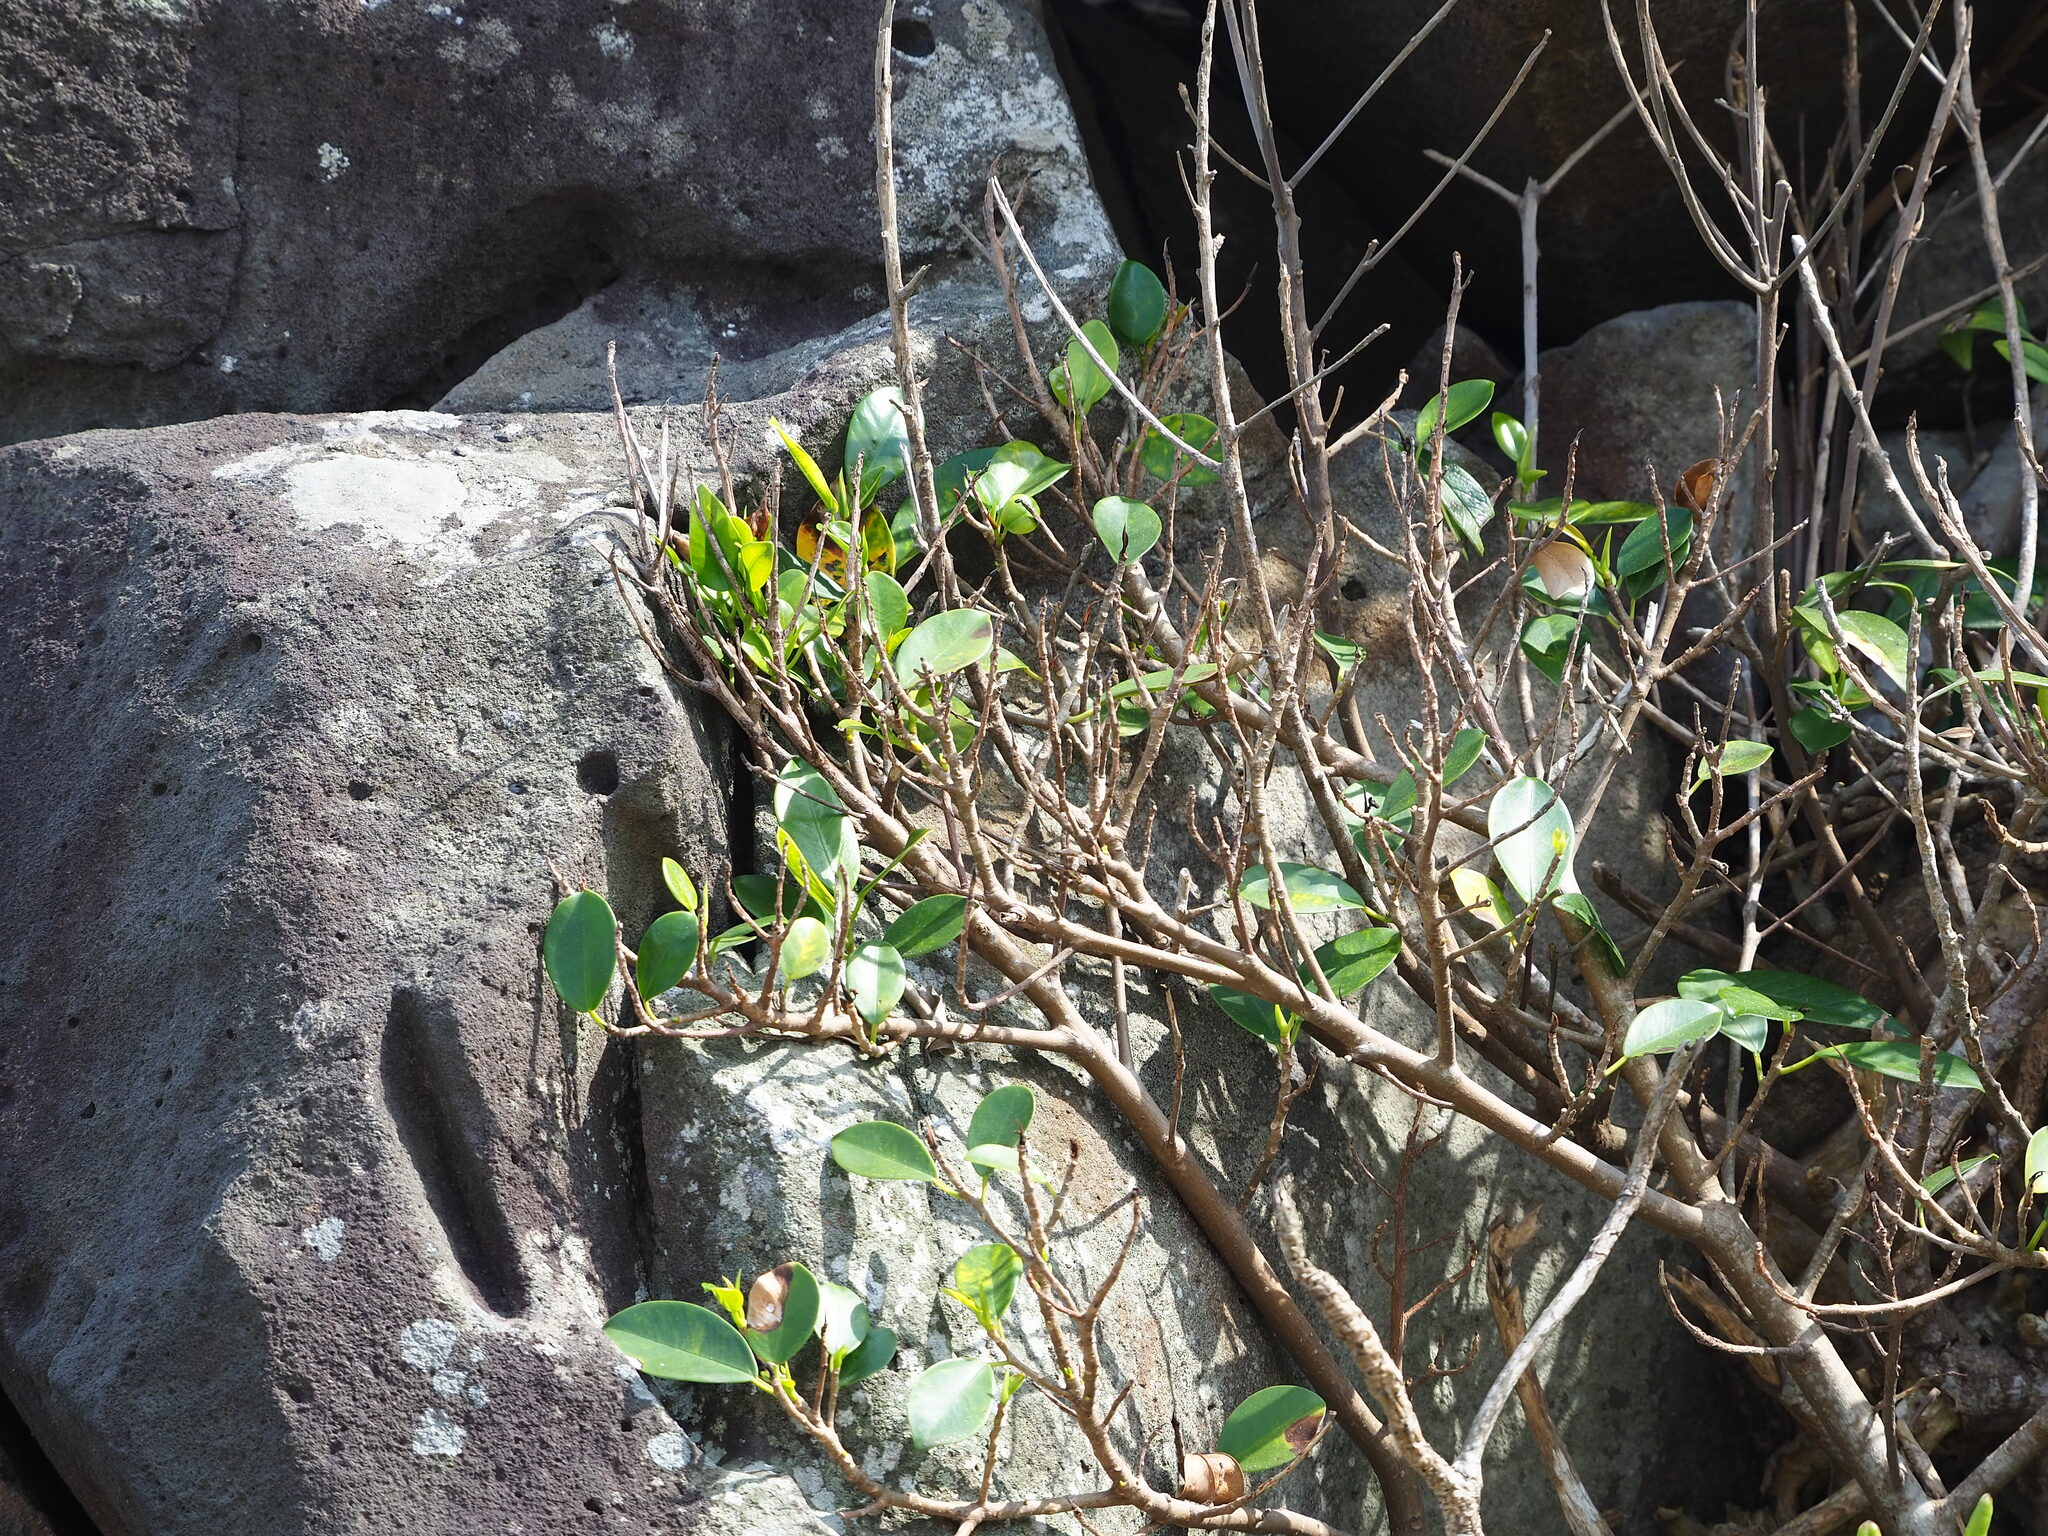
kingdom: Plantae
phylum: Tracheophyta
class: Magnoliopsida
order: Rosales
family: Moraceae
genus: Ficus
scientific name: Ficus microcarpa
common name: Chinese banyan
